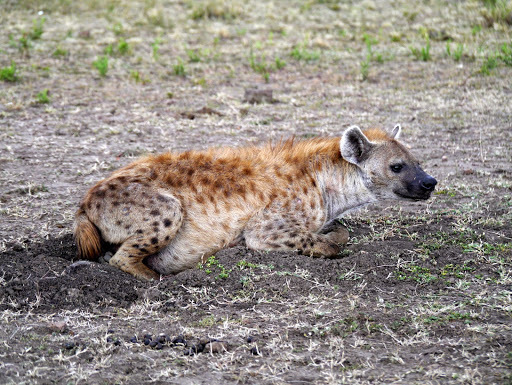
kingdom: Animalia
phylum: Chordata
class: Mammalia
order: Carnivora
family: Hyaenidae
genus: Crocuta
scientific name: Crocuta crocuta
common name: Spotted hyaena
